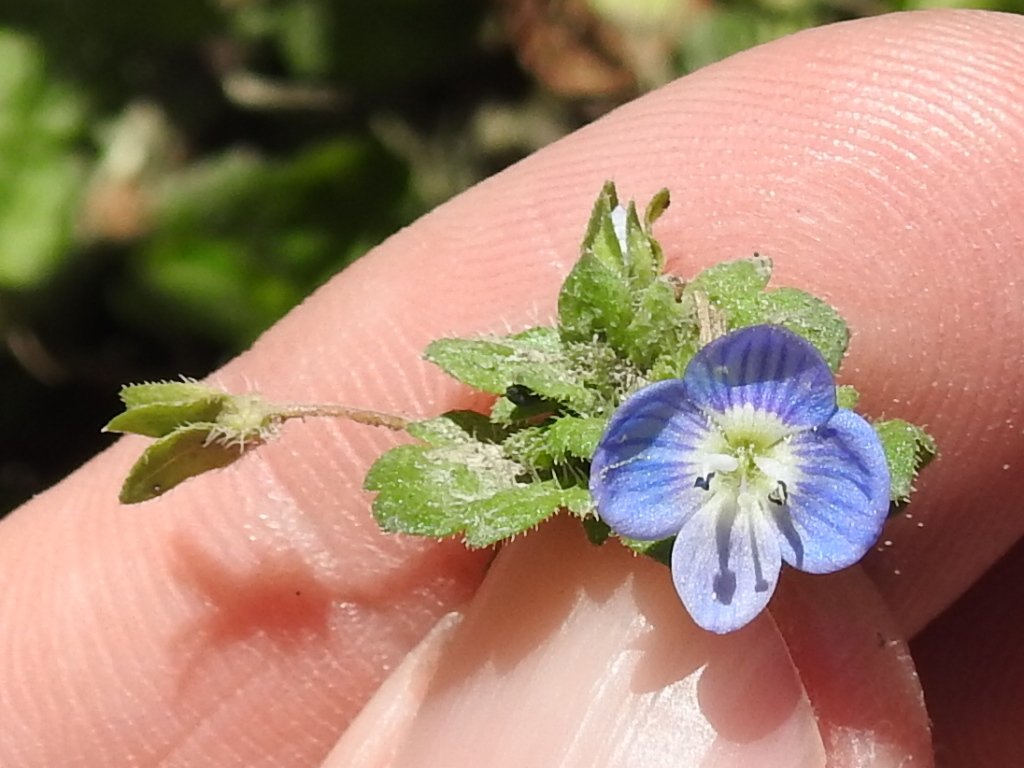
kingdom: Plantae
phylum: Tracheophyta
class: Magnoliopsida
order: Lamiales
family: Plantaginaceae
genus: Veronica
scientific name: Veronica persica
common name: Common field-speedwell
